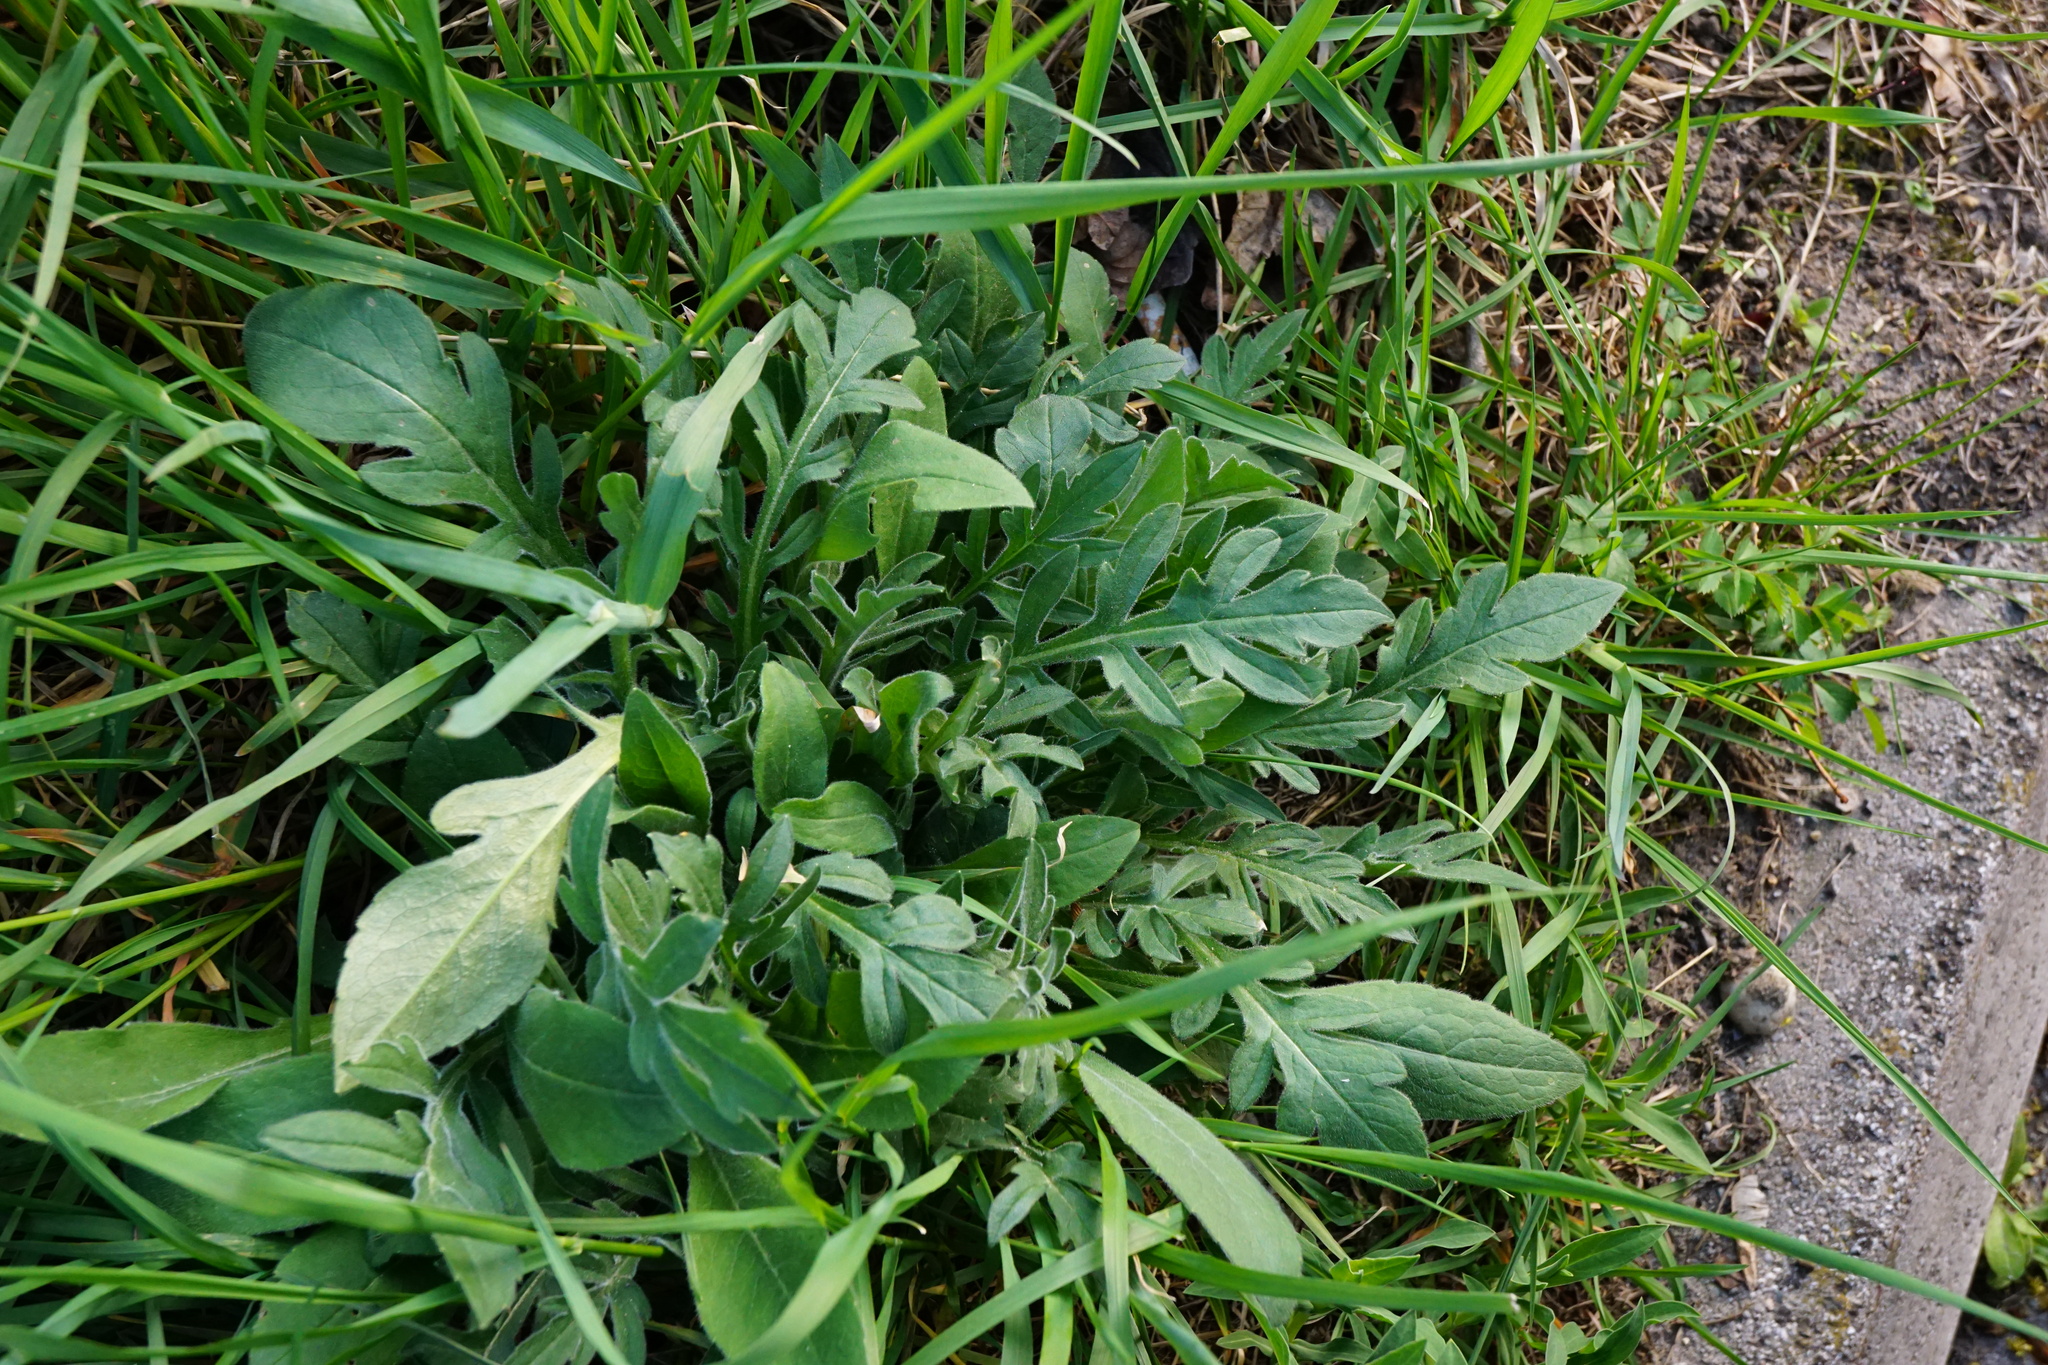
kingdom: Plantae
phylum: Tracheophyta
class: Magnoliopsida
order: Dipsacales
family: Caprifoliaceae
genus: Knautia
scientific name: Knautia arvensis
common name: Field scabiosa
